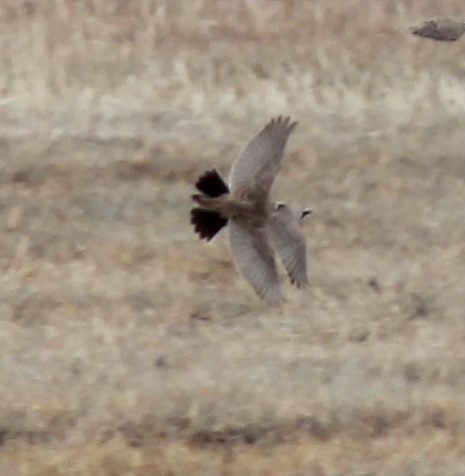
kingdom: Animalia
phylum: Chordata
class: Aves
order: Passeriformes
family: Alaudidae
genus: Eremophila
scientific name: Eremophila alpestris
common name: Horned lark
